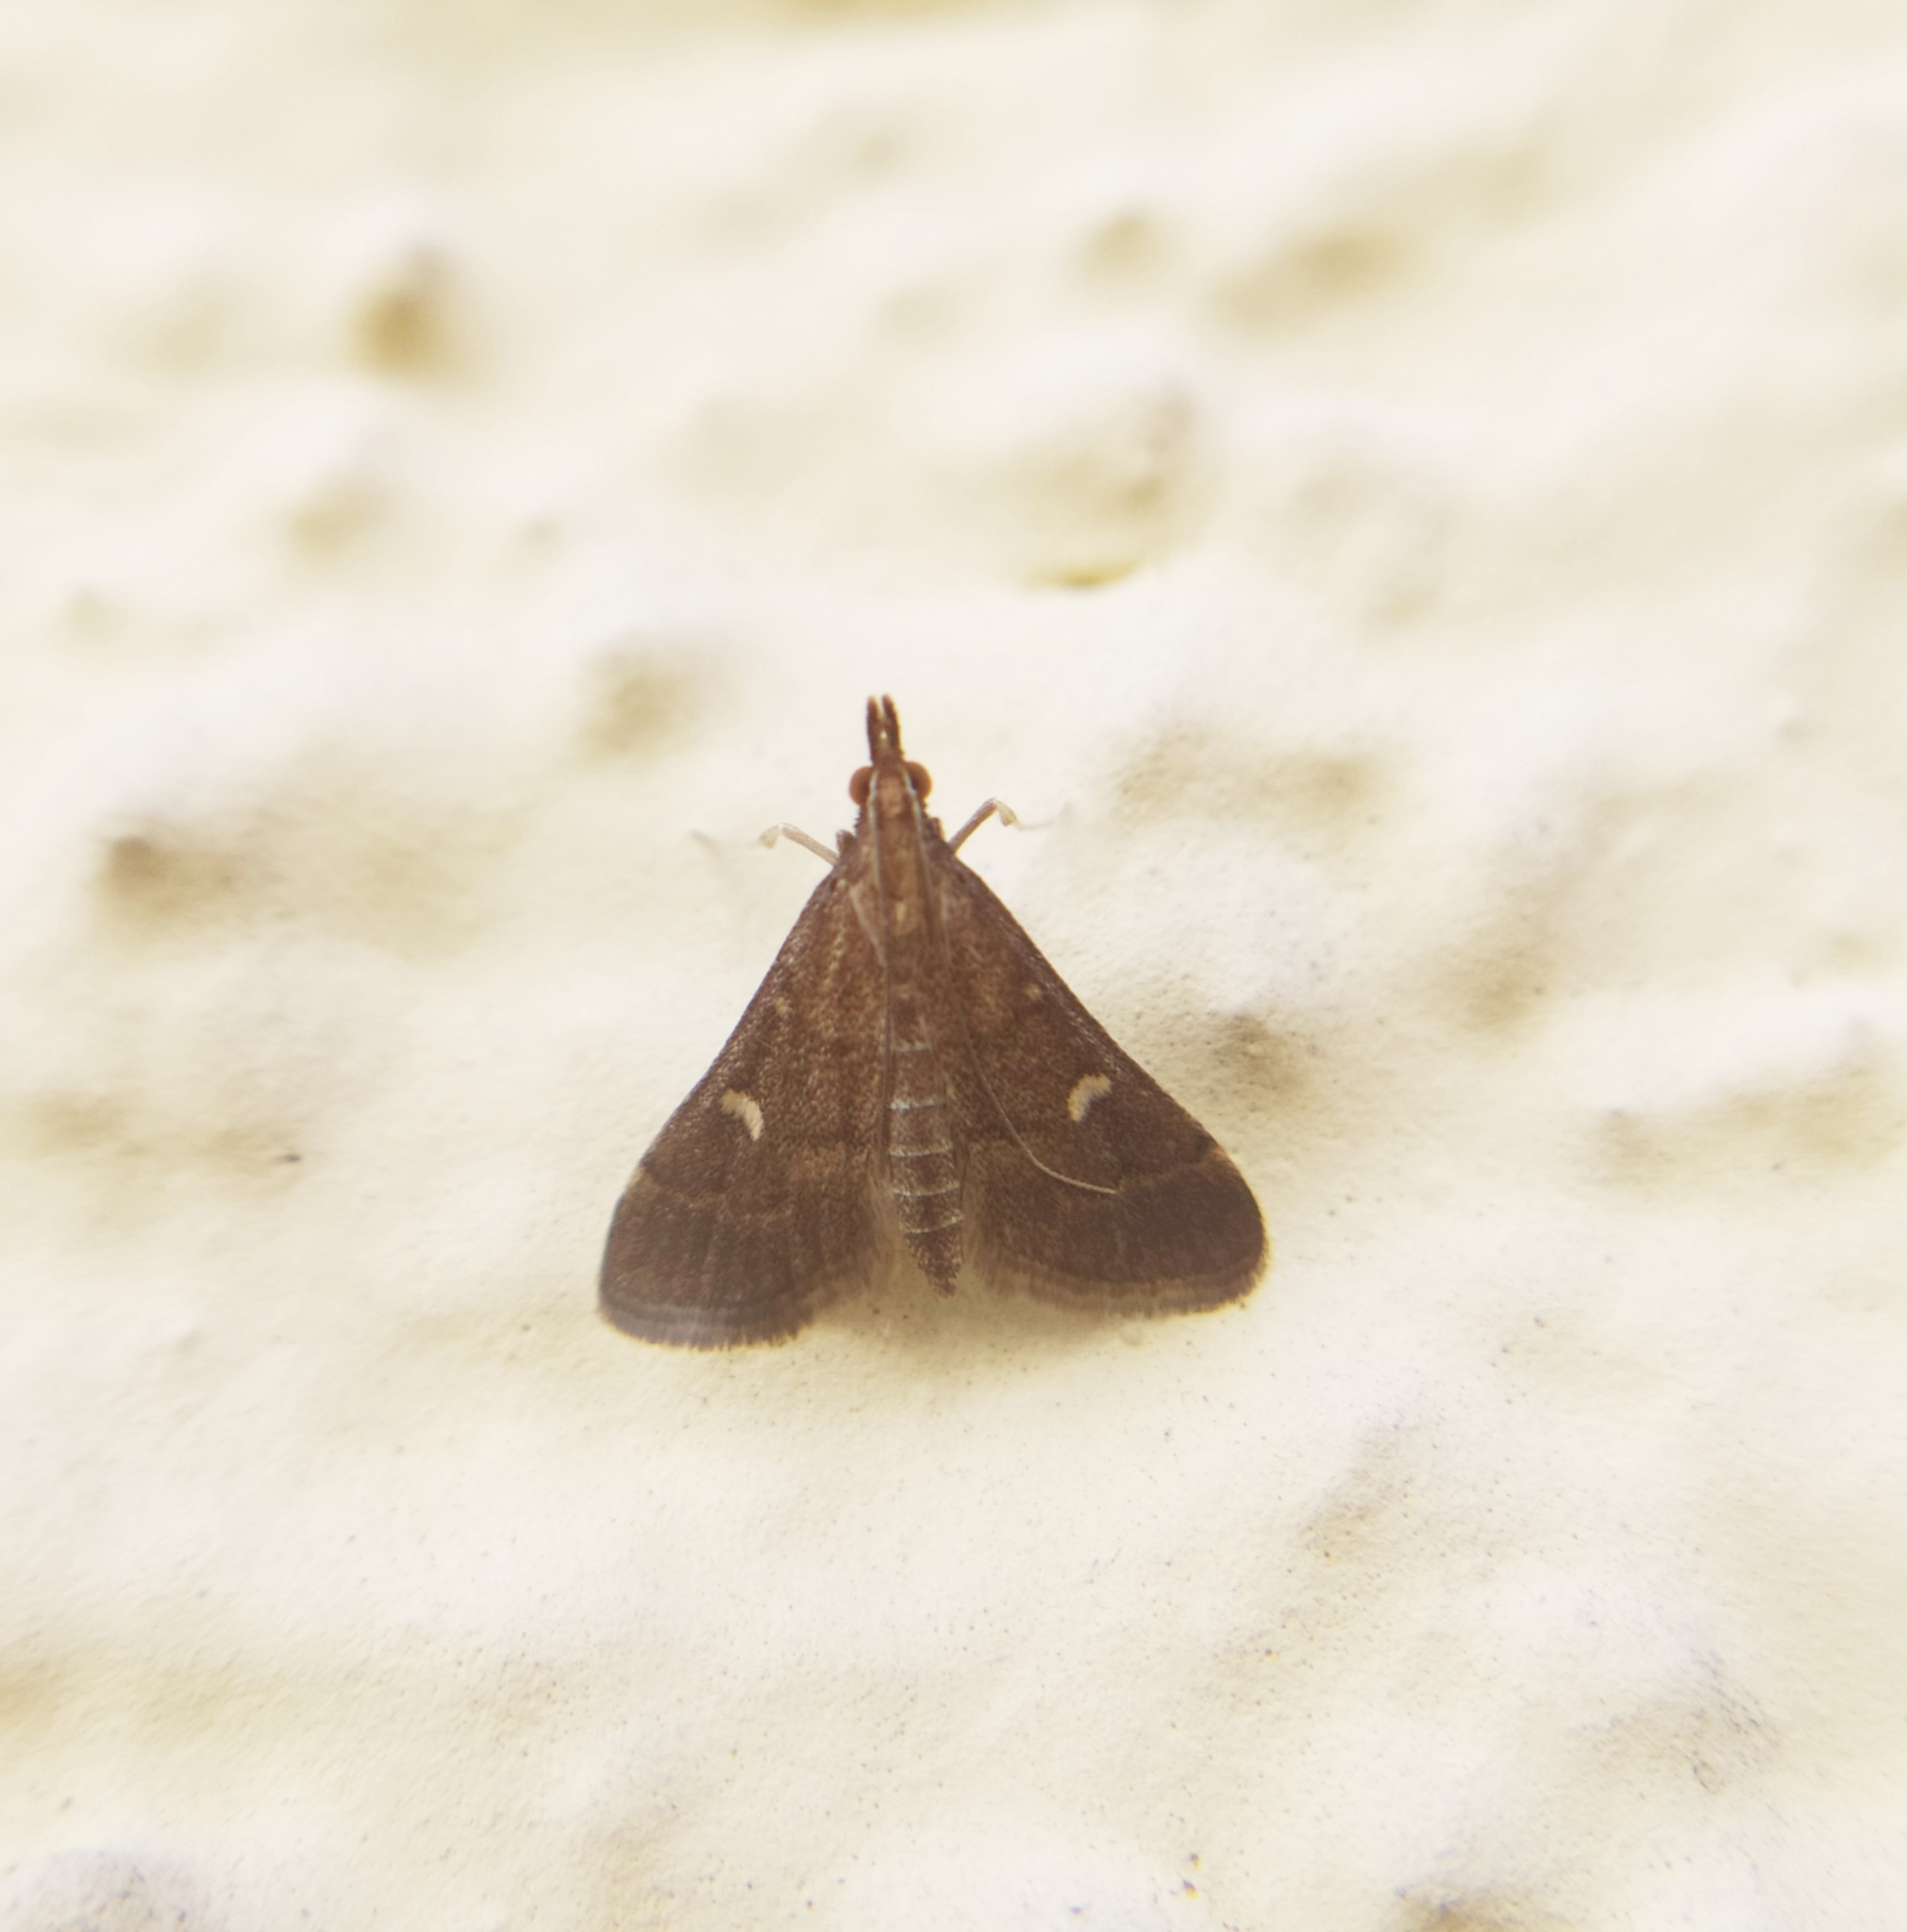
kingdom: Animalia
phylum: Arthropoda
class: Insecta
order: Lepidoptera
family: Crambidae
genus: Stenia
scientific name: Stenia Dolicharthria punctalis
